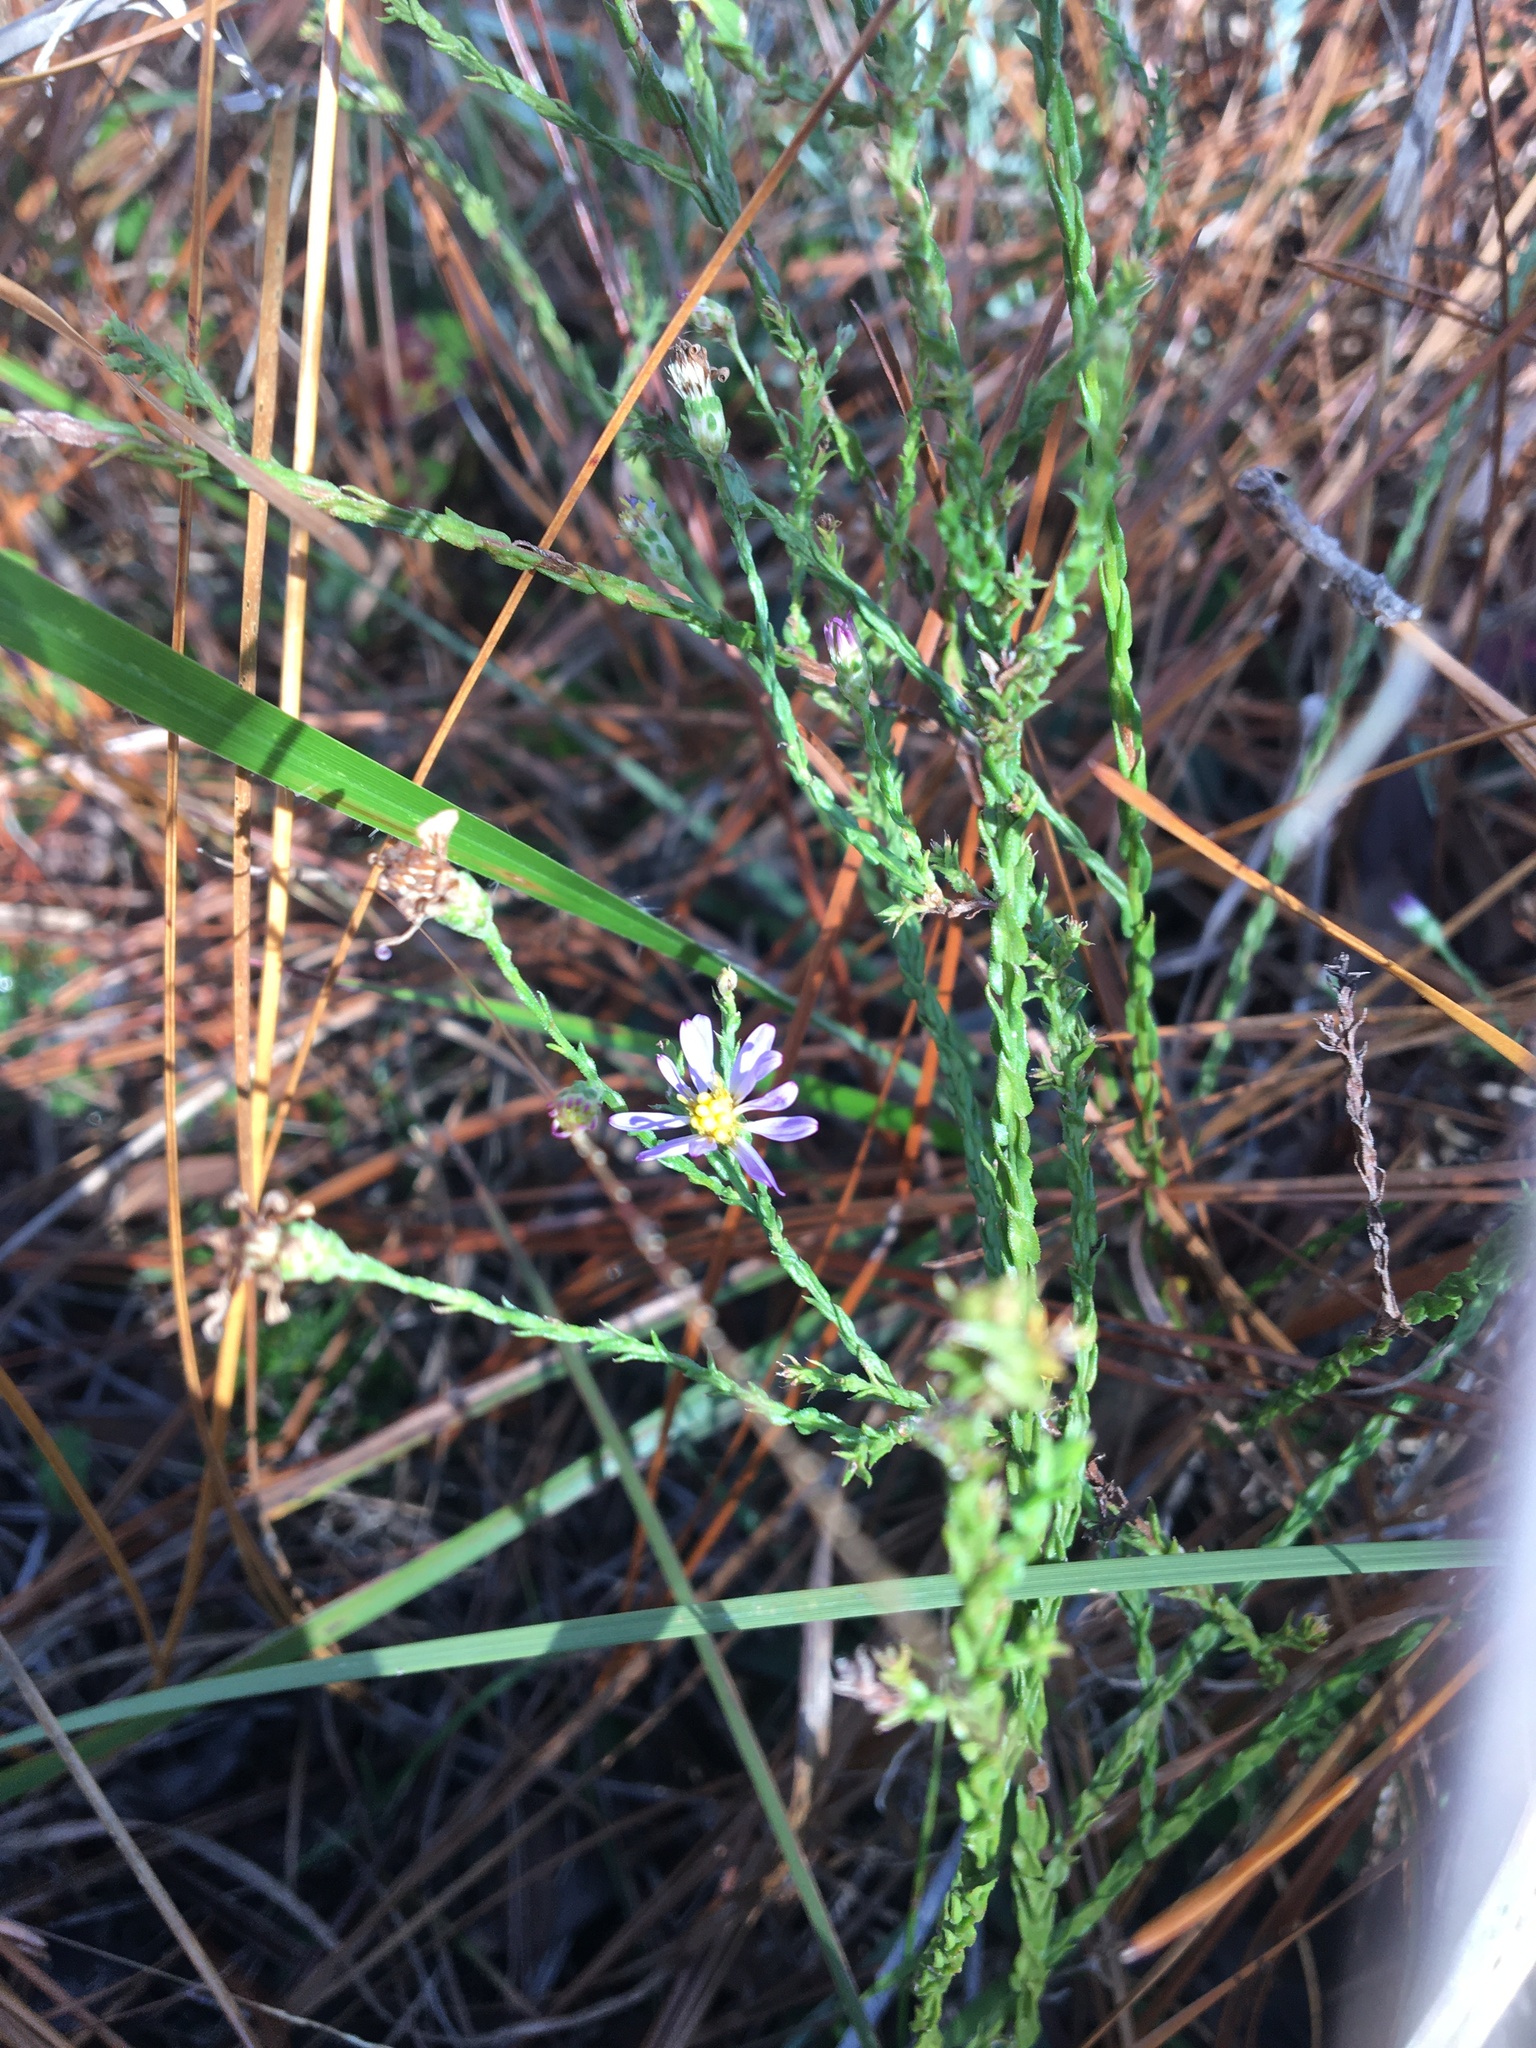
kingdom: Plantae
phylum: Tracheophyta
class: Magnoliopsida
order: Asterales
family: Asteraceae
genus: Symphyotrichum
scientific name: Symphyotrichum adnatum
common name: Scale-leaf aster
